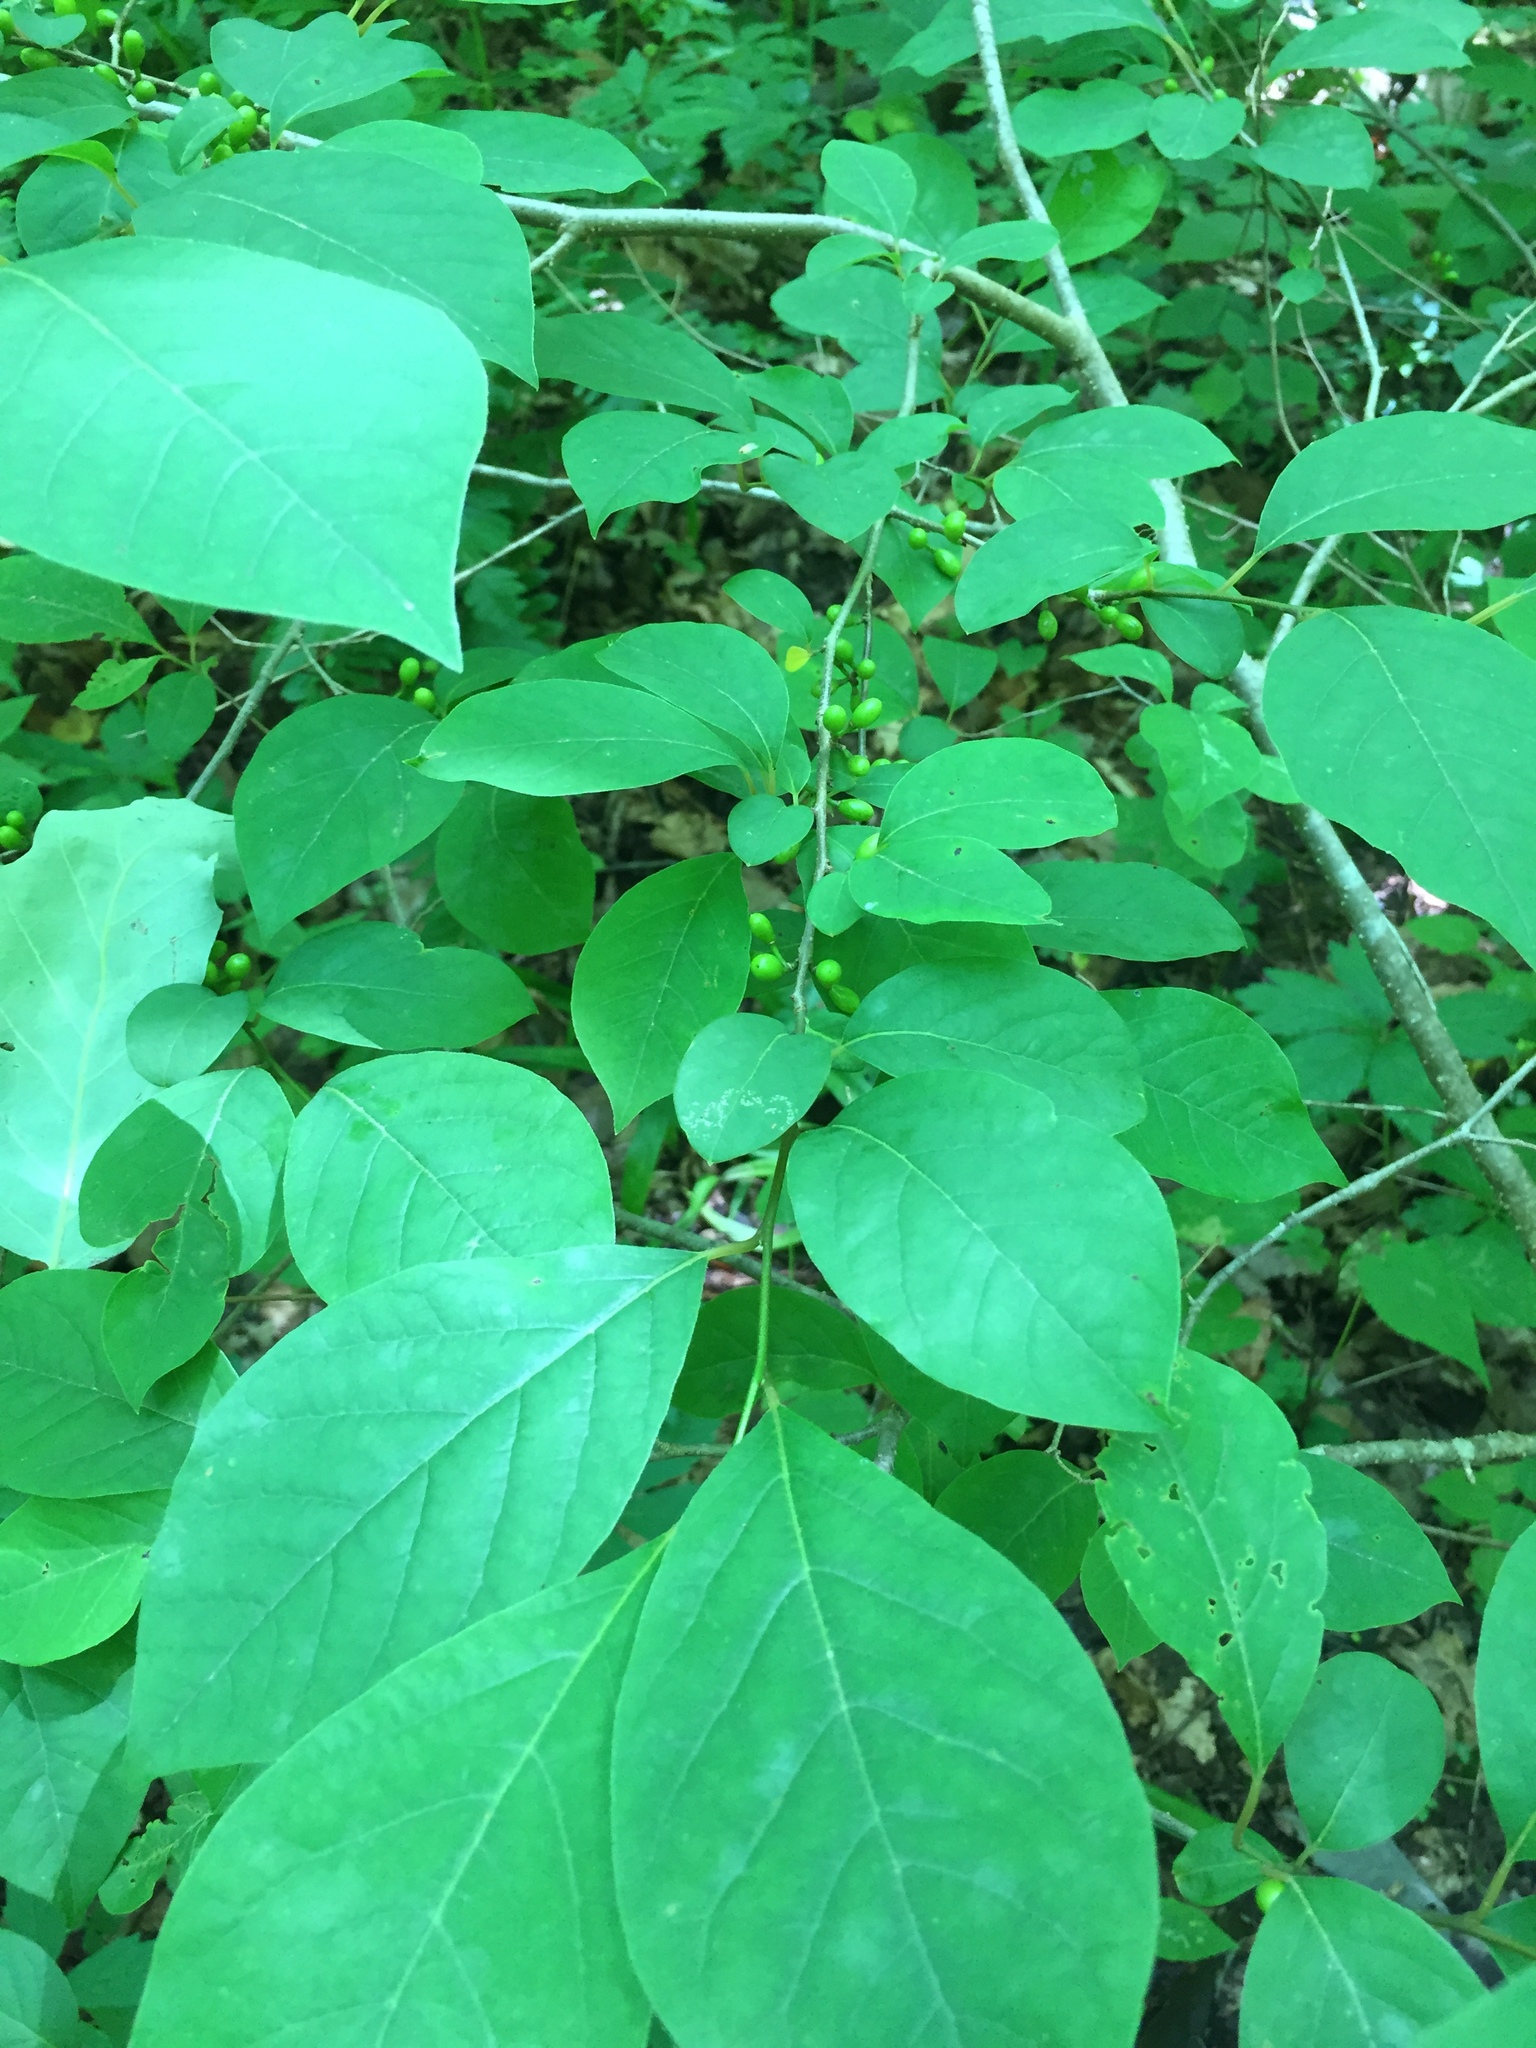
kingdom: Plantae
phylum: Tracheophyta
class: Magnoliopsida
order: Laurales
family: Lauraceae
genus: Lindera
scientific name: Lindera benzoin
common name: Spicebush
